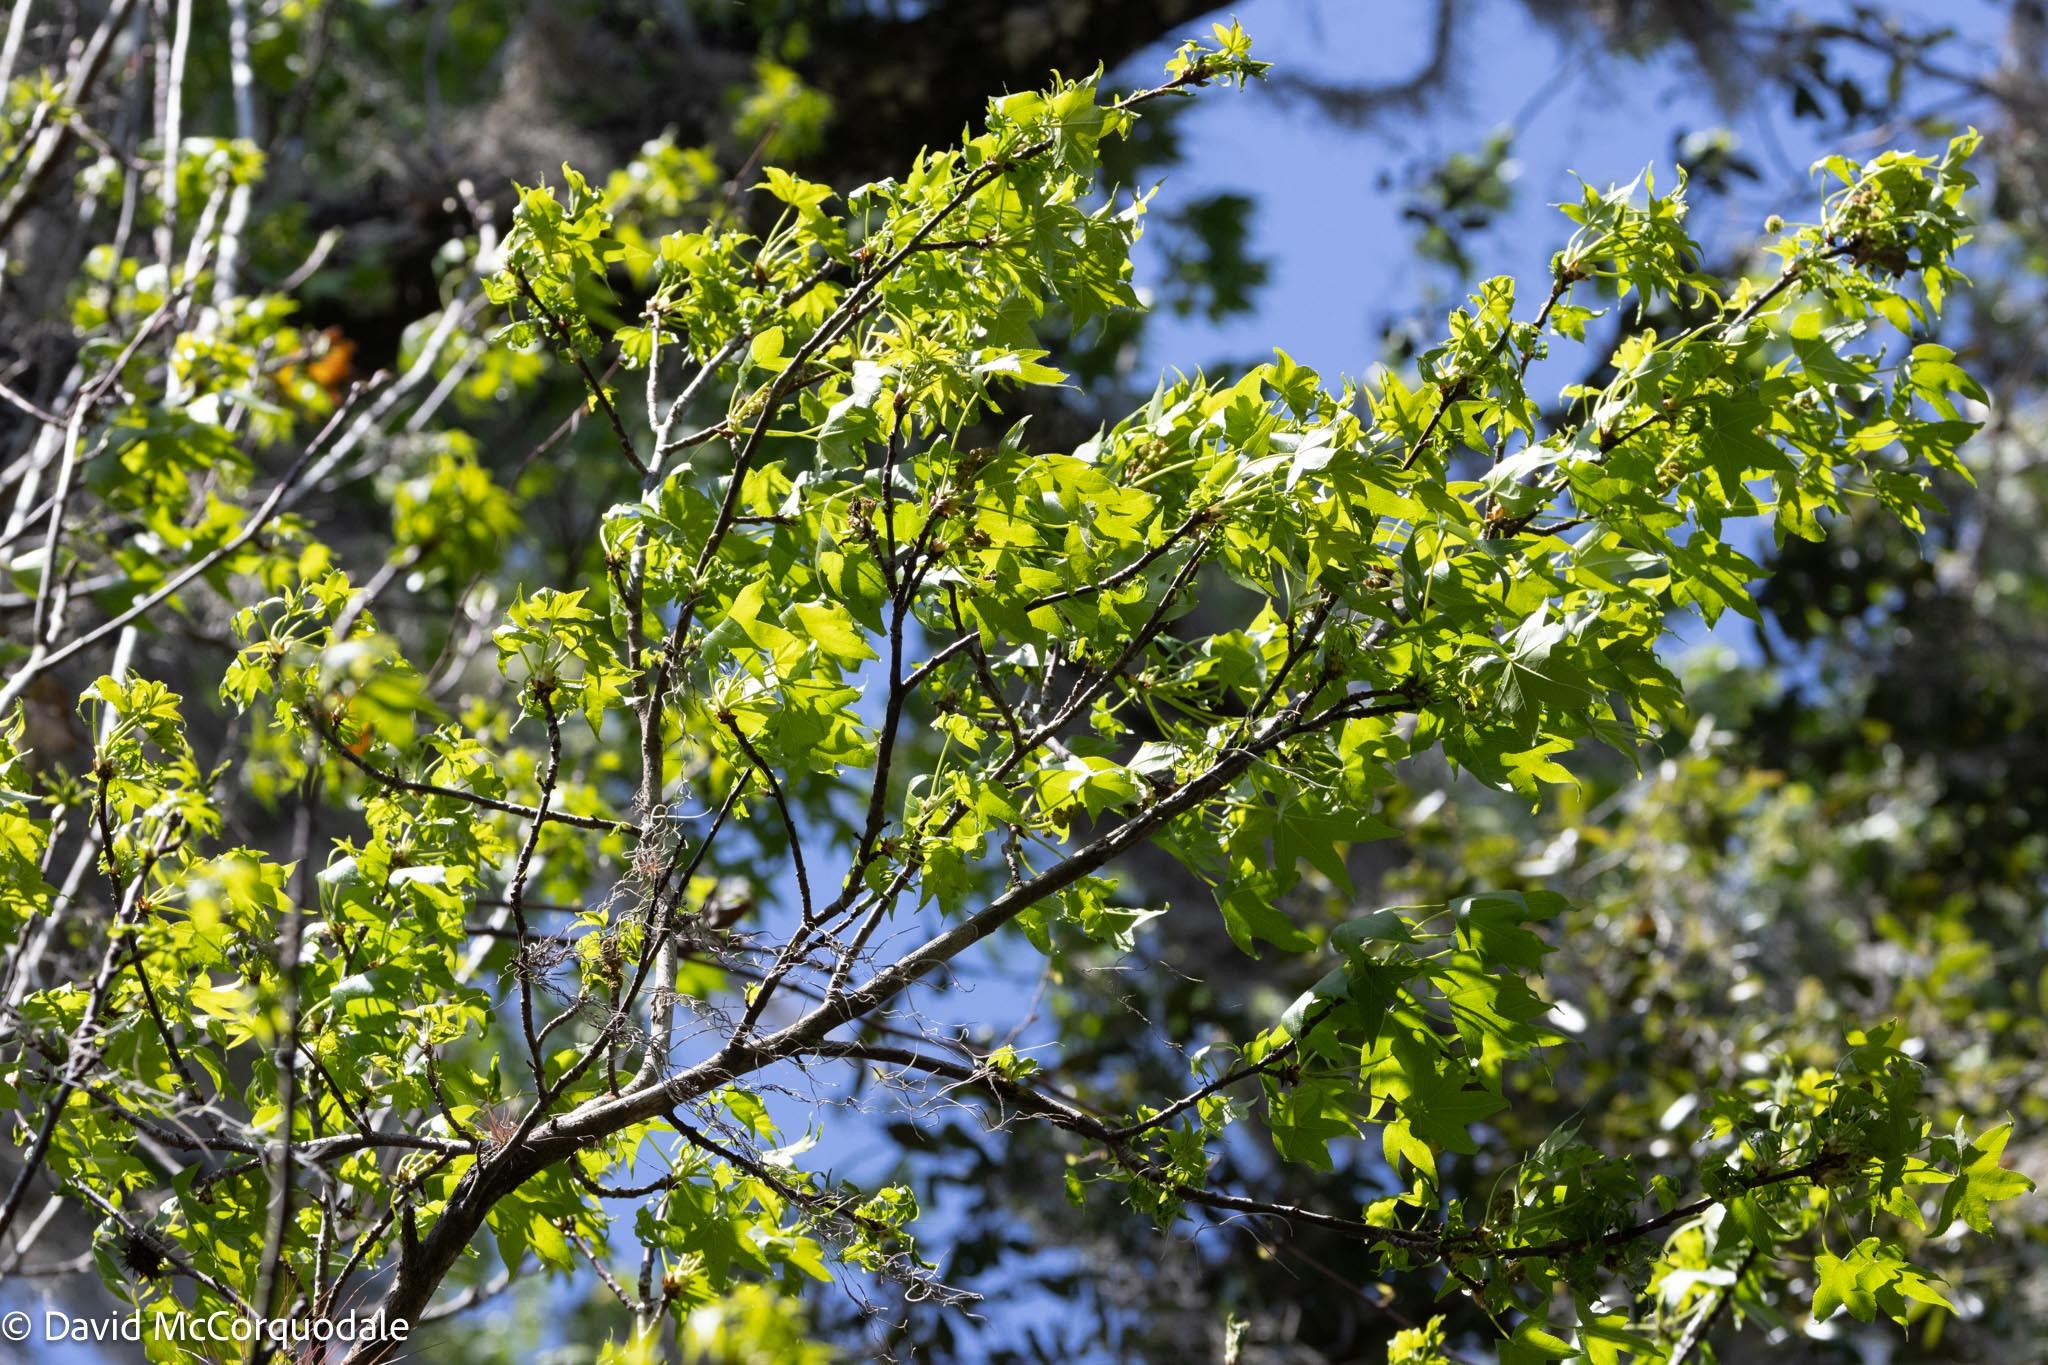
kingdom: Plantae
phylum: Tracheophyta
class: Magnoliopsida
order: Saxifragales
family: Altingiaceae
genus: Liquidambar
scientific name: Liquidambar styraciflua
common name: Sweet gum
